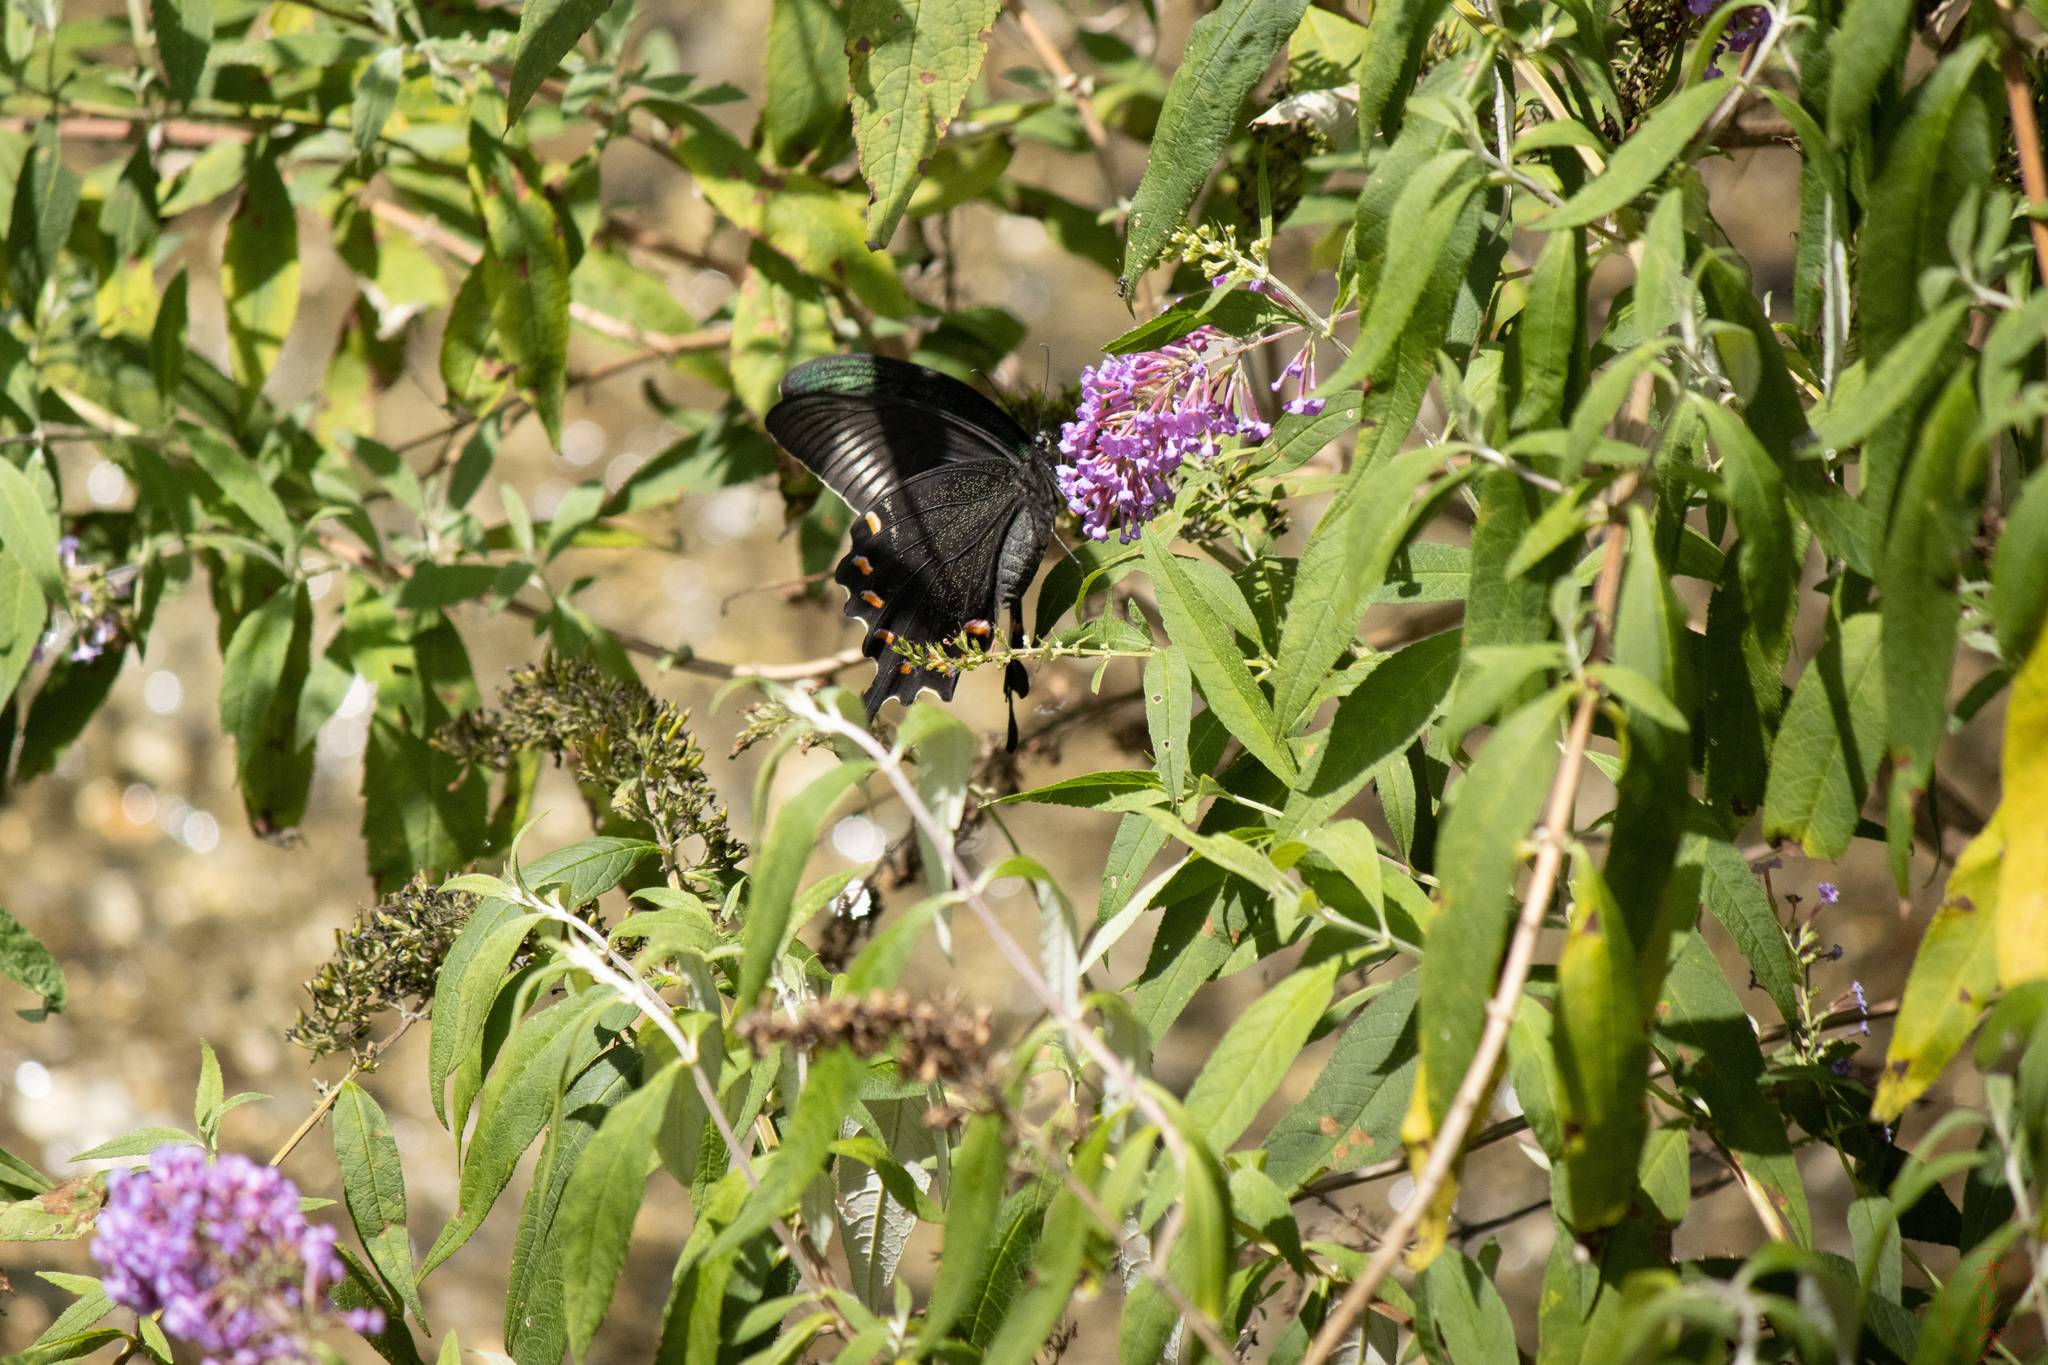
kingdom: Animalia
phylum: Arthropoda
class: Insecta
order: Lepidoptera
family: Papilionidae
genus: Papilio
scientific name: Papilio maackii
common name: Alpine black swallowtail
